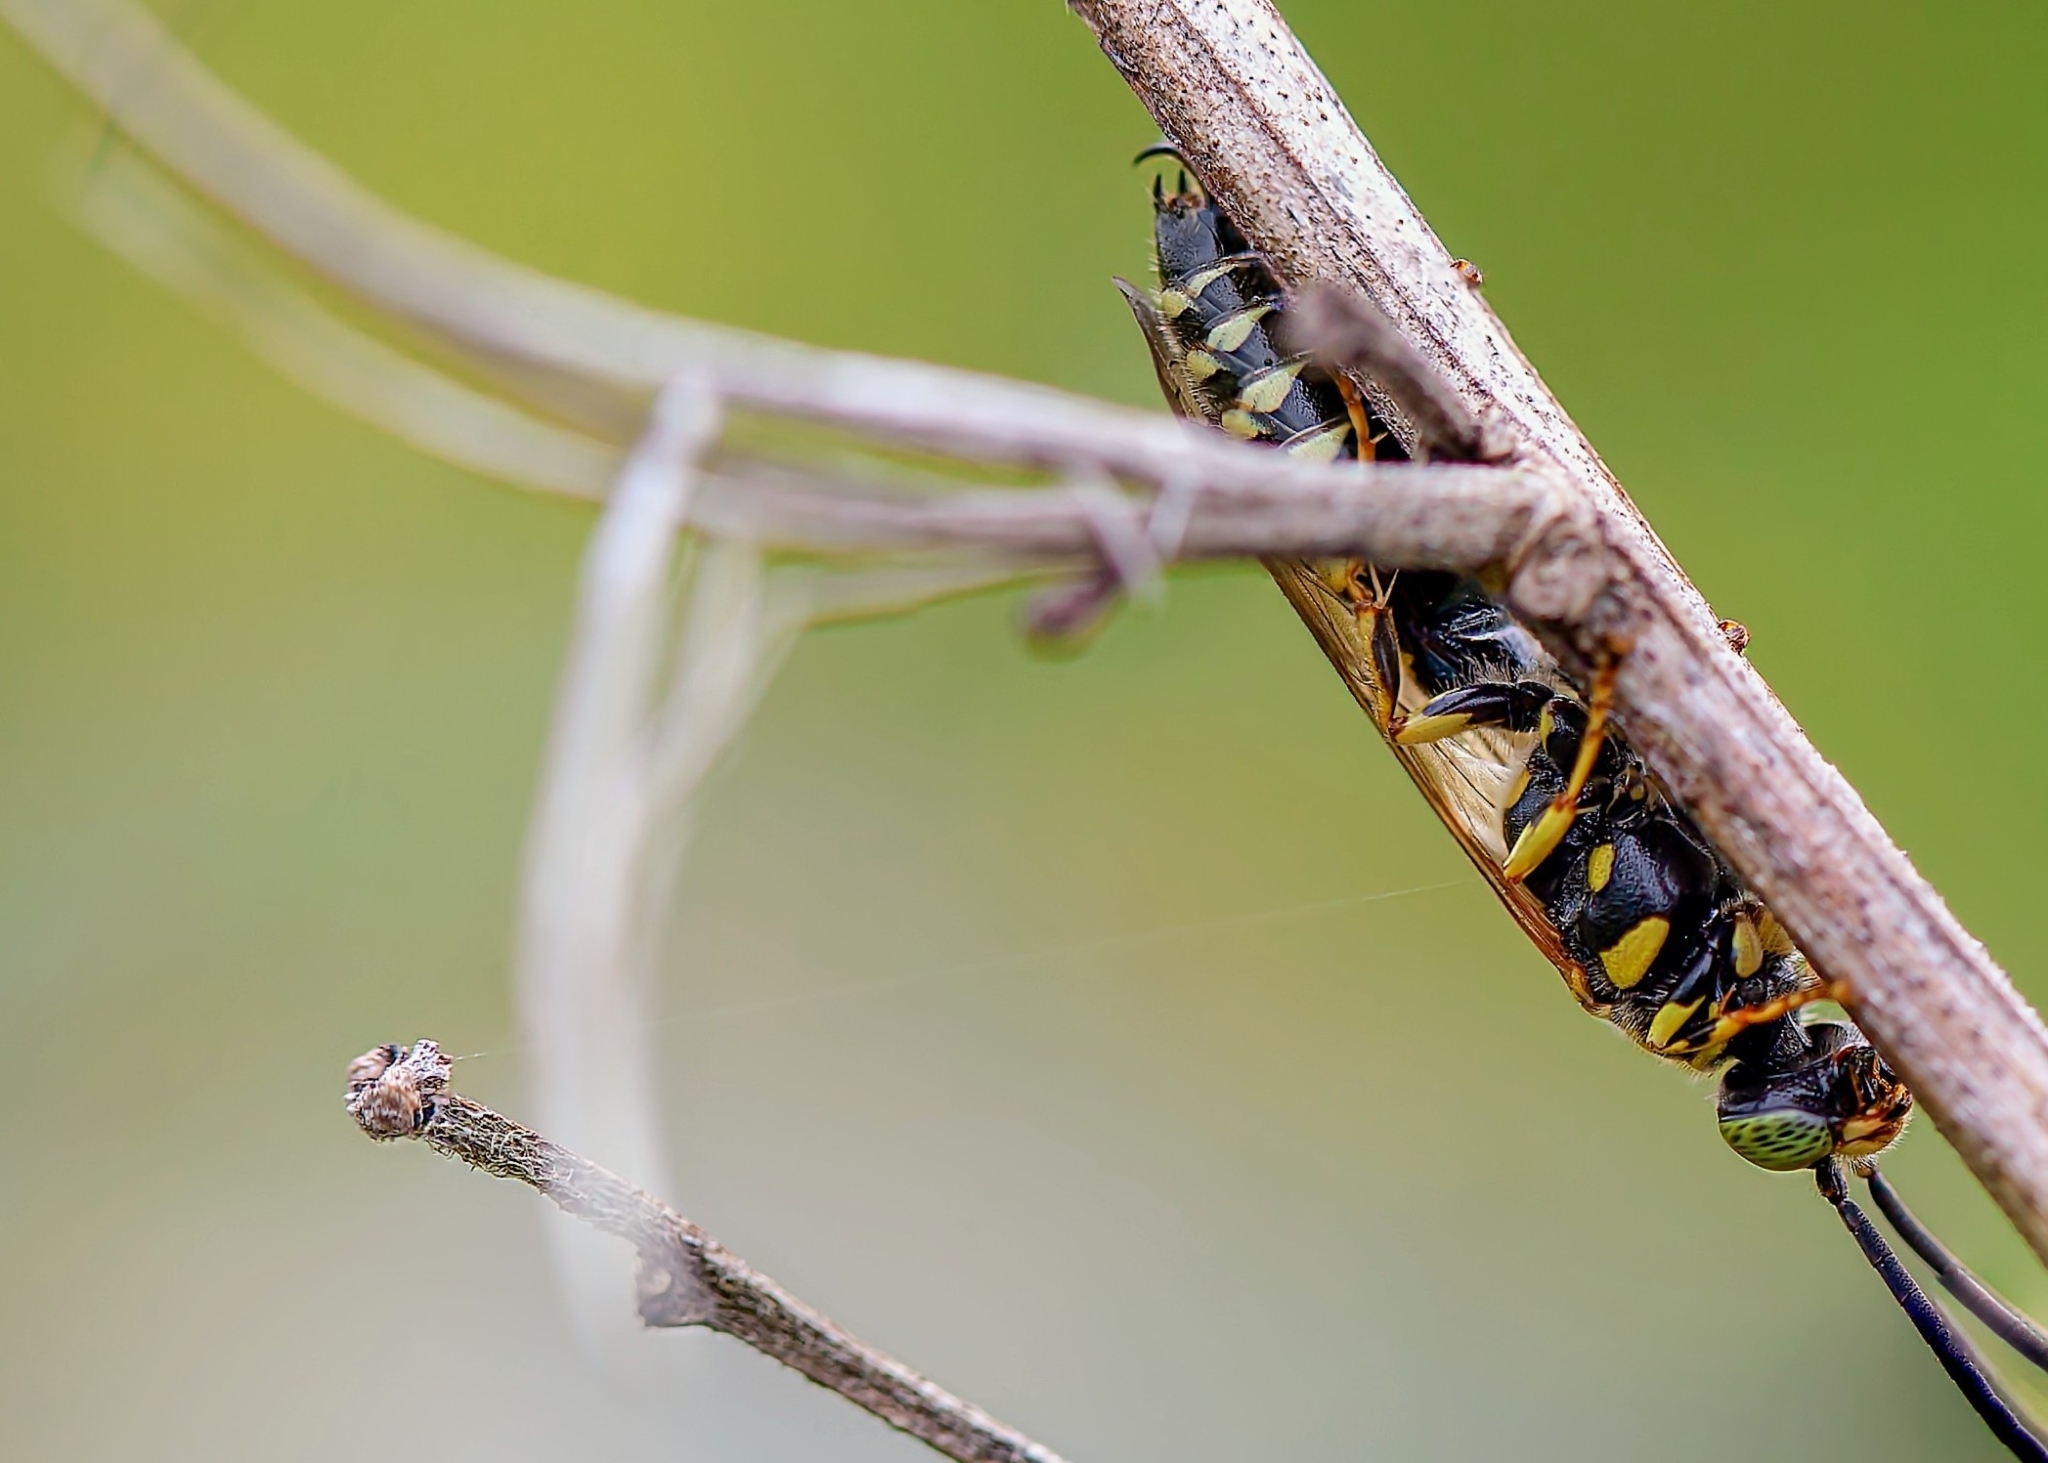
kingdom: Animalia
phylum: Arthropoda
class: Insecta
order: Hymenoptera
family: Tiphiidae
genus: Myzinum
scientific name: Myzinum
